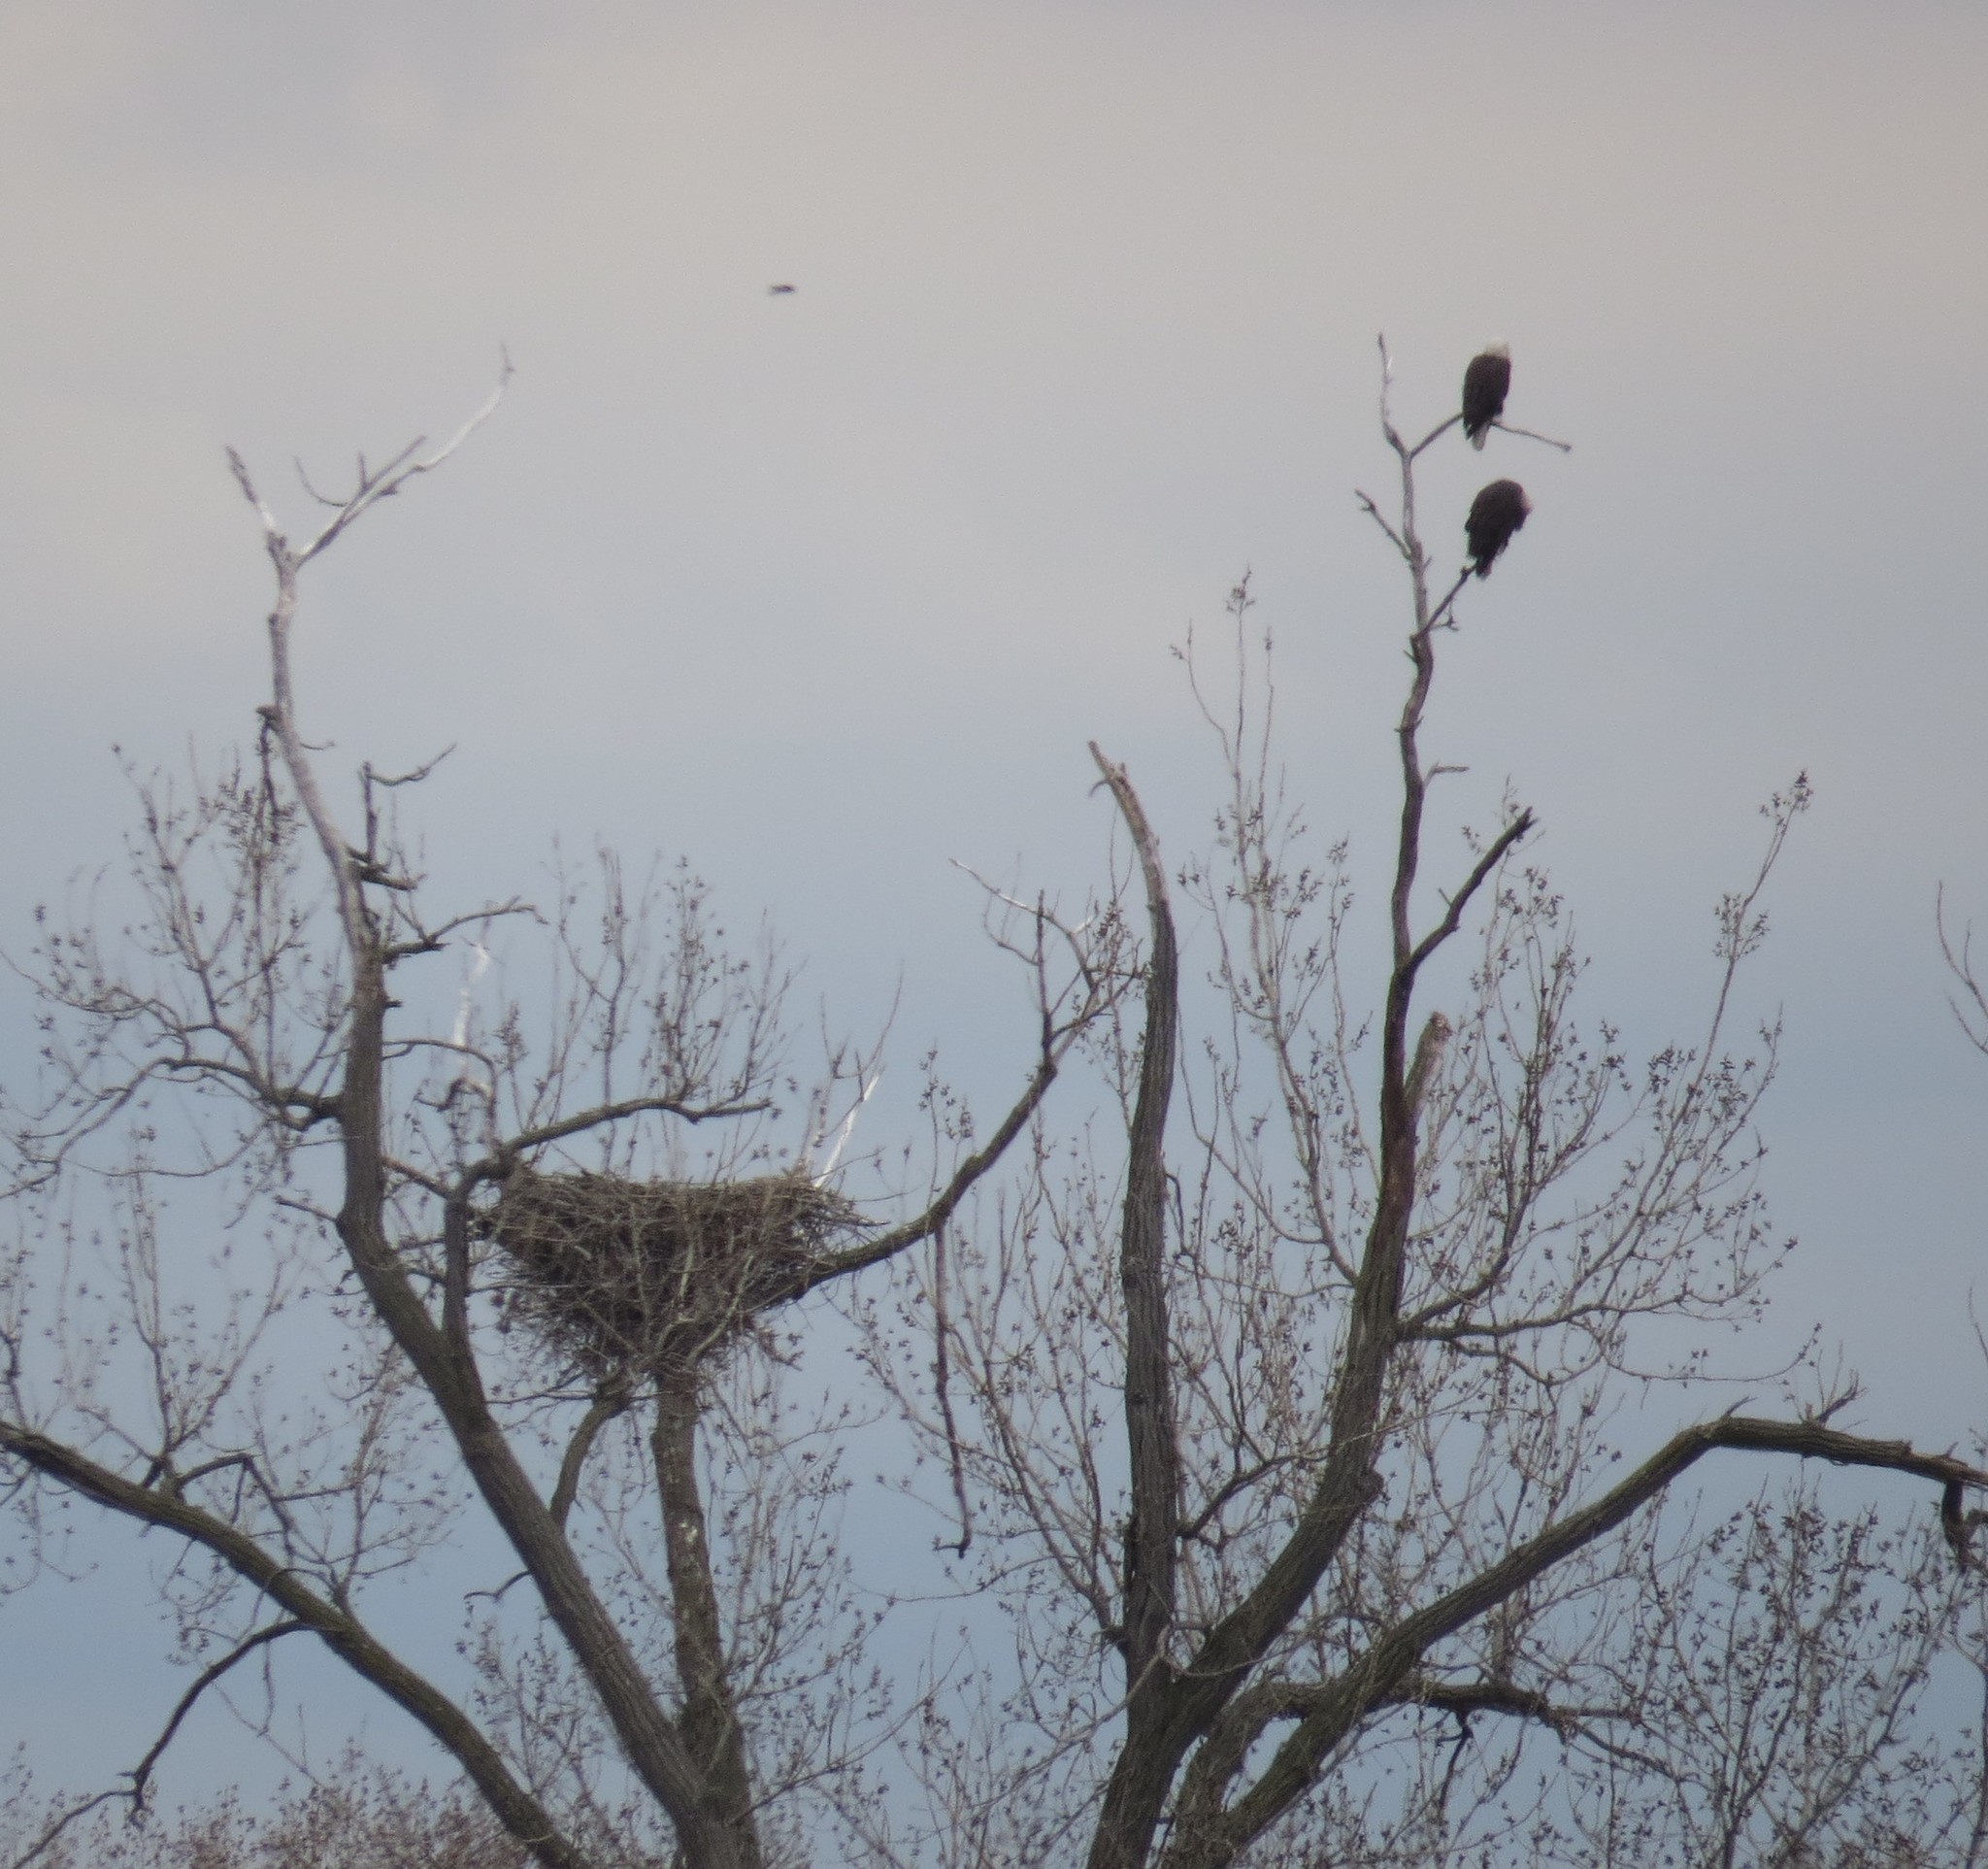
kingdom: Animalia
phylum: Chordata
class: Aves
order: Accipitriformes
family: Accipitridae
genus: Haliaeetus
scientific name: Haliaeetus leucocephalus
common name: Bald eagle
